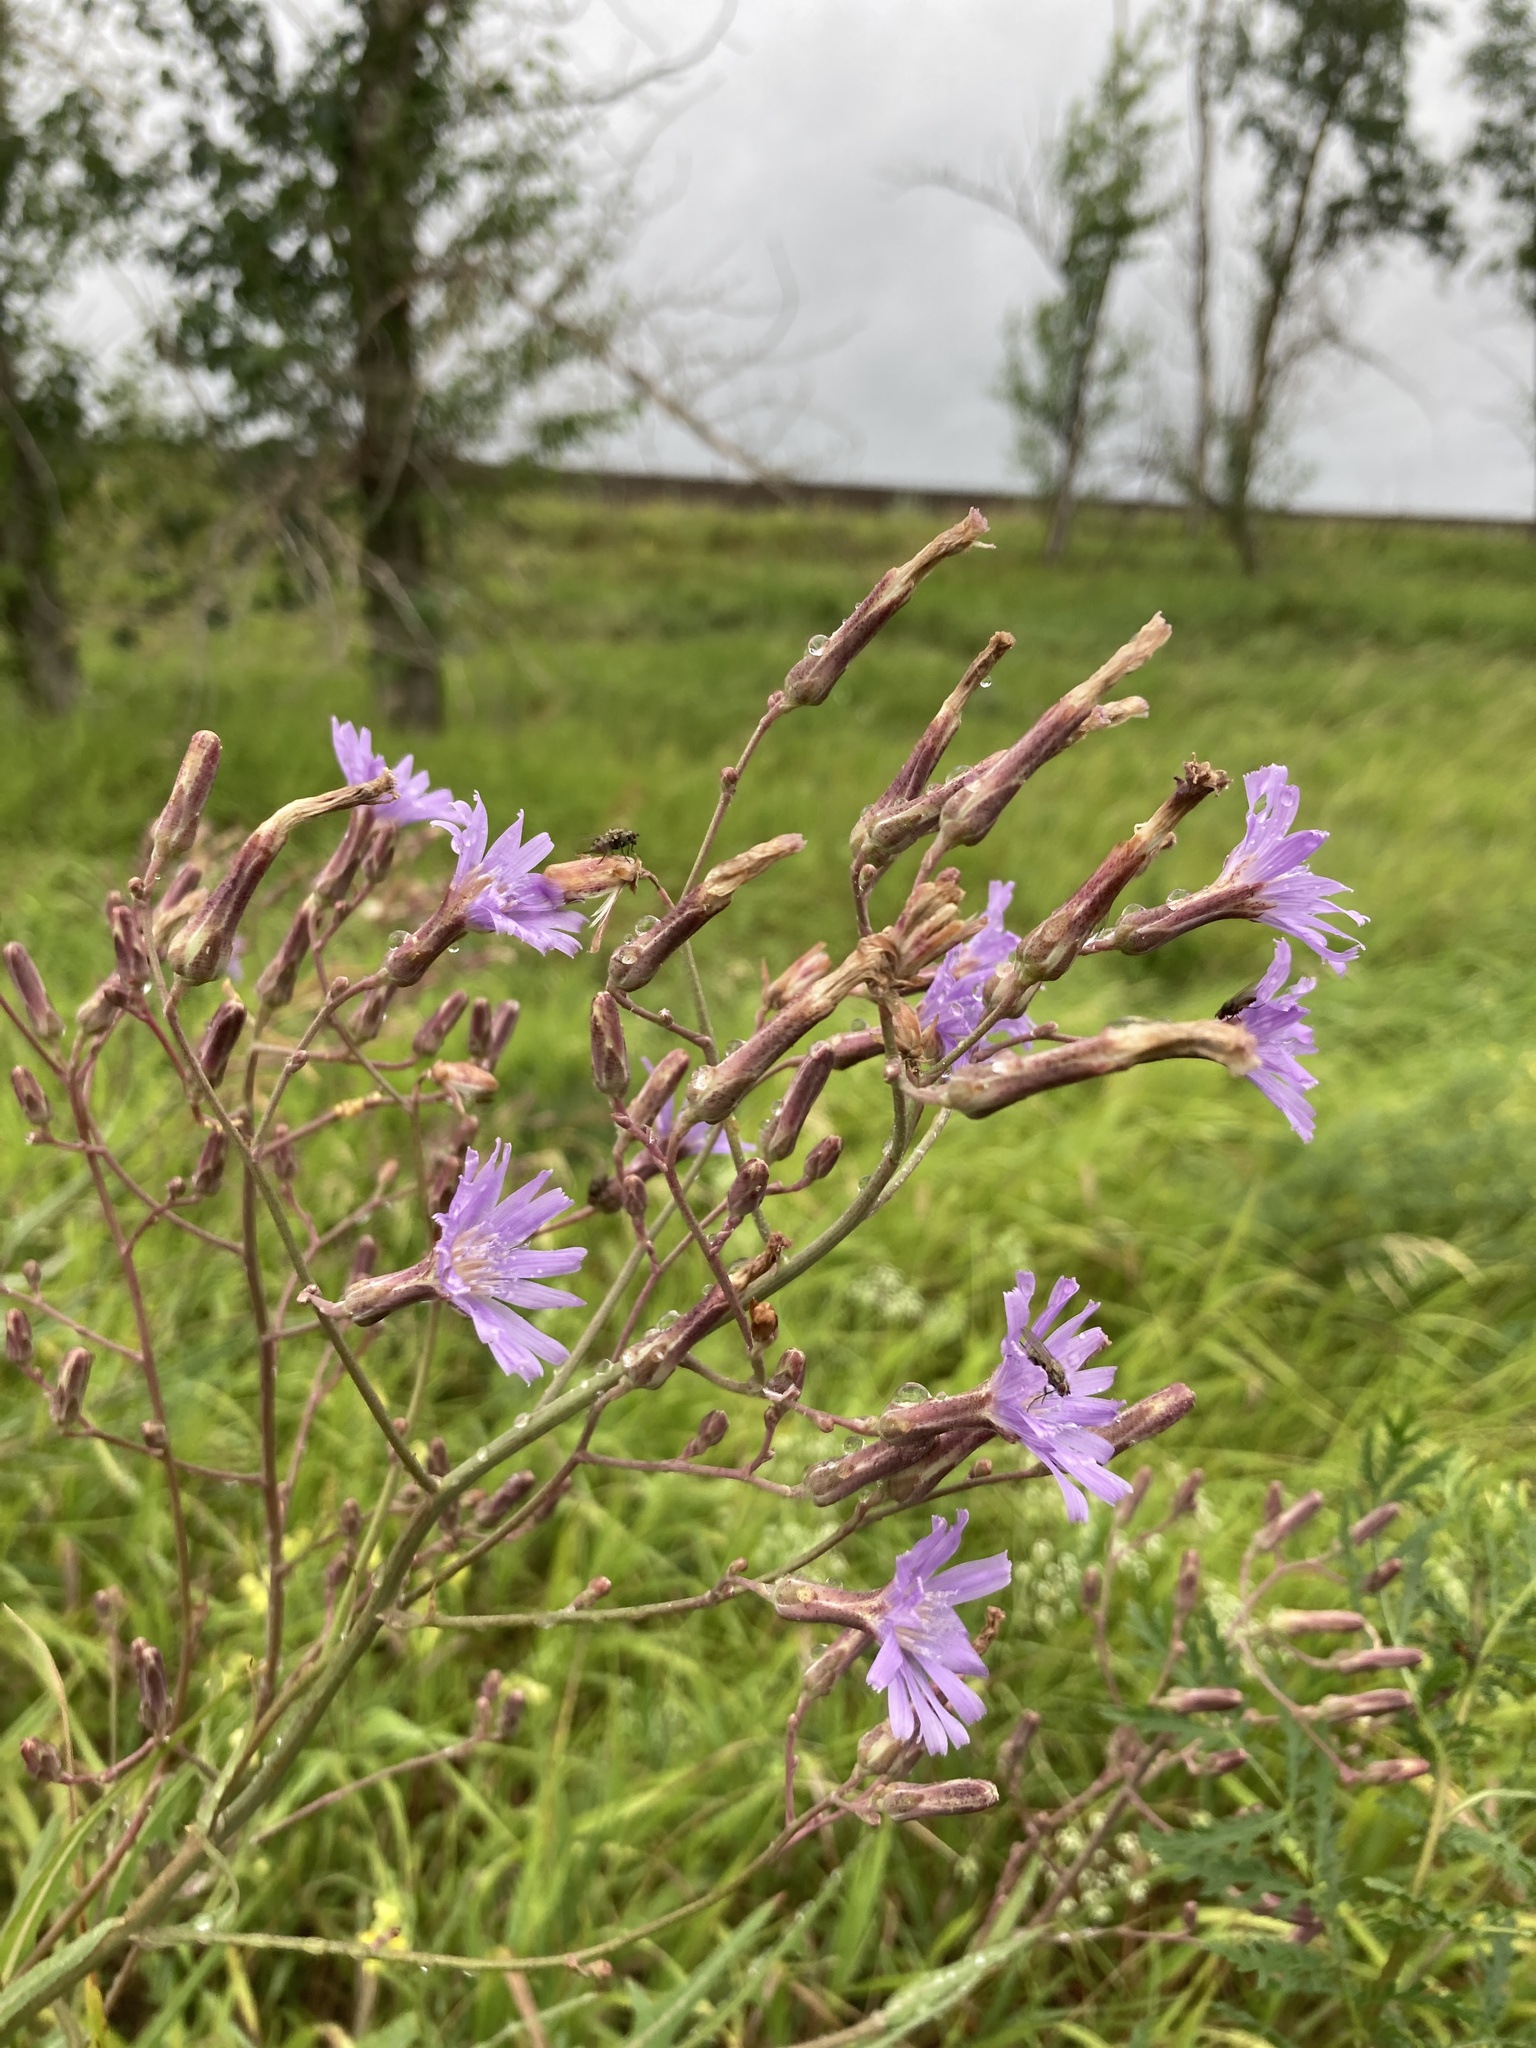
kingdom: Plantae
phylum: Tracheophyta
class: Magnoliopsida
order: Asterales
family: Asteraceae
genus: Lactuca
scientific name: Lactuca tatarica
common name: Blue lettuce
